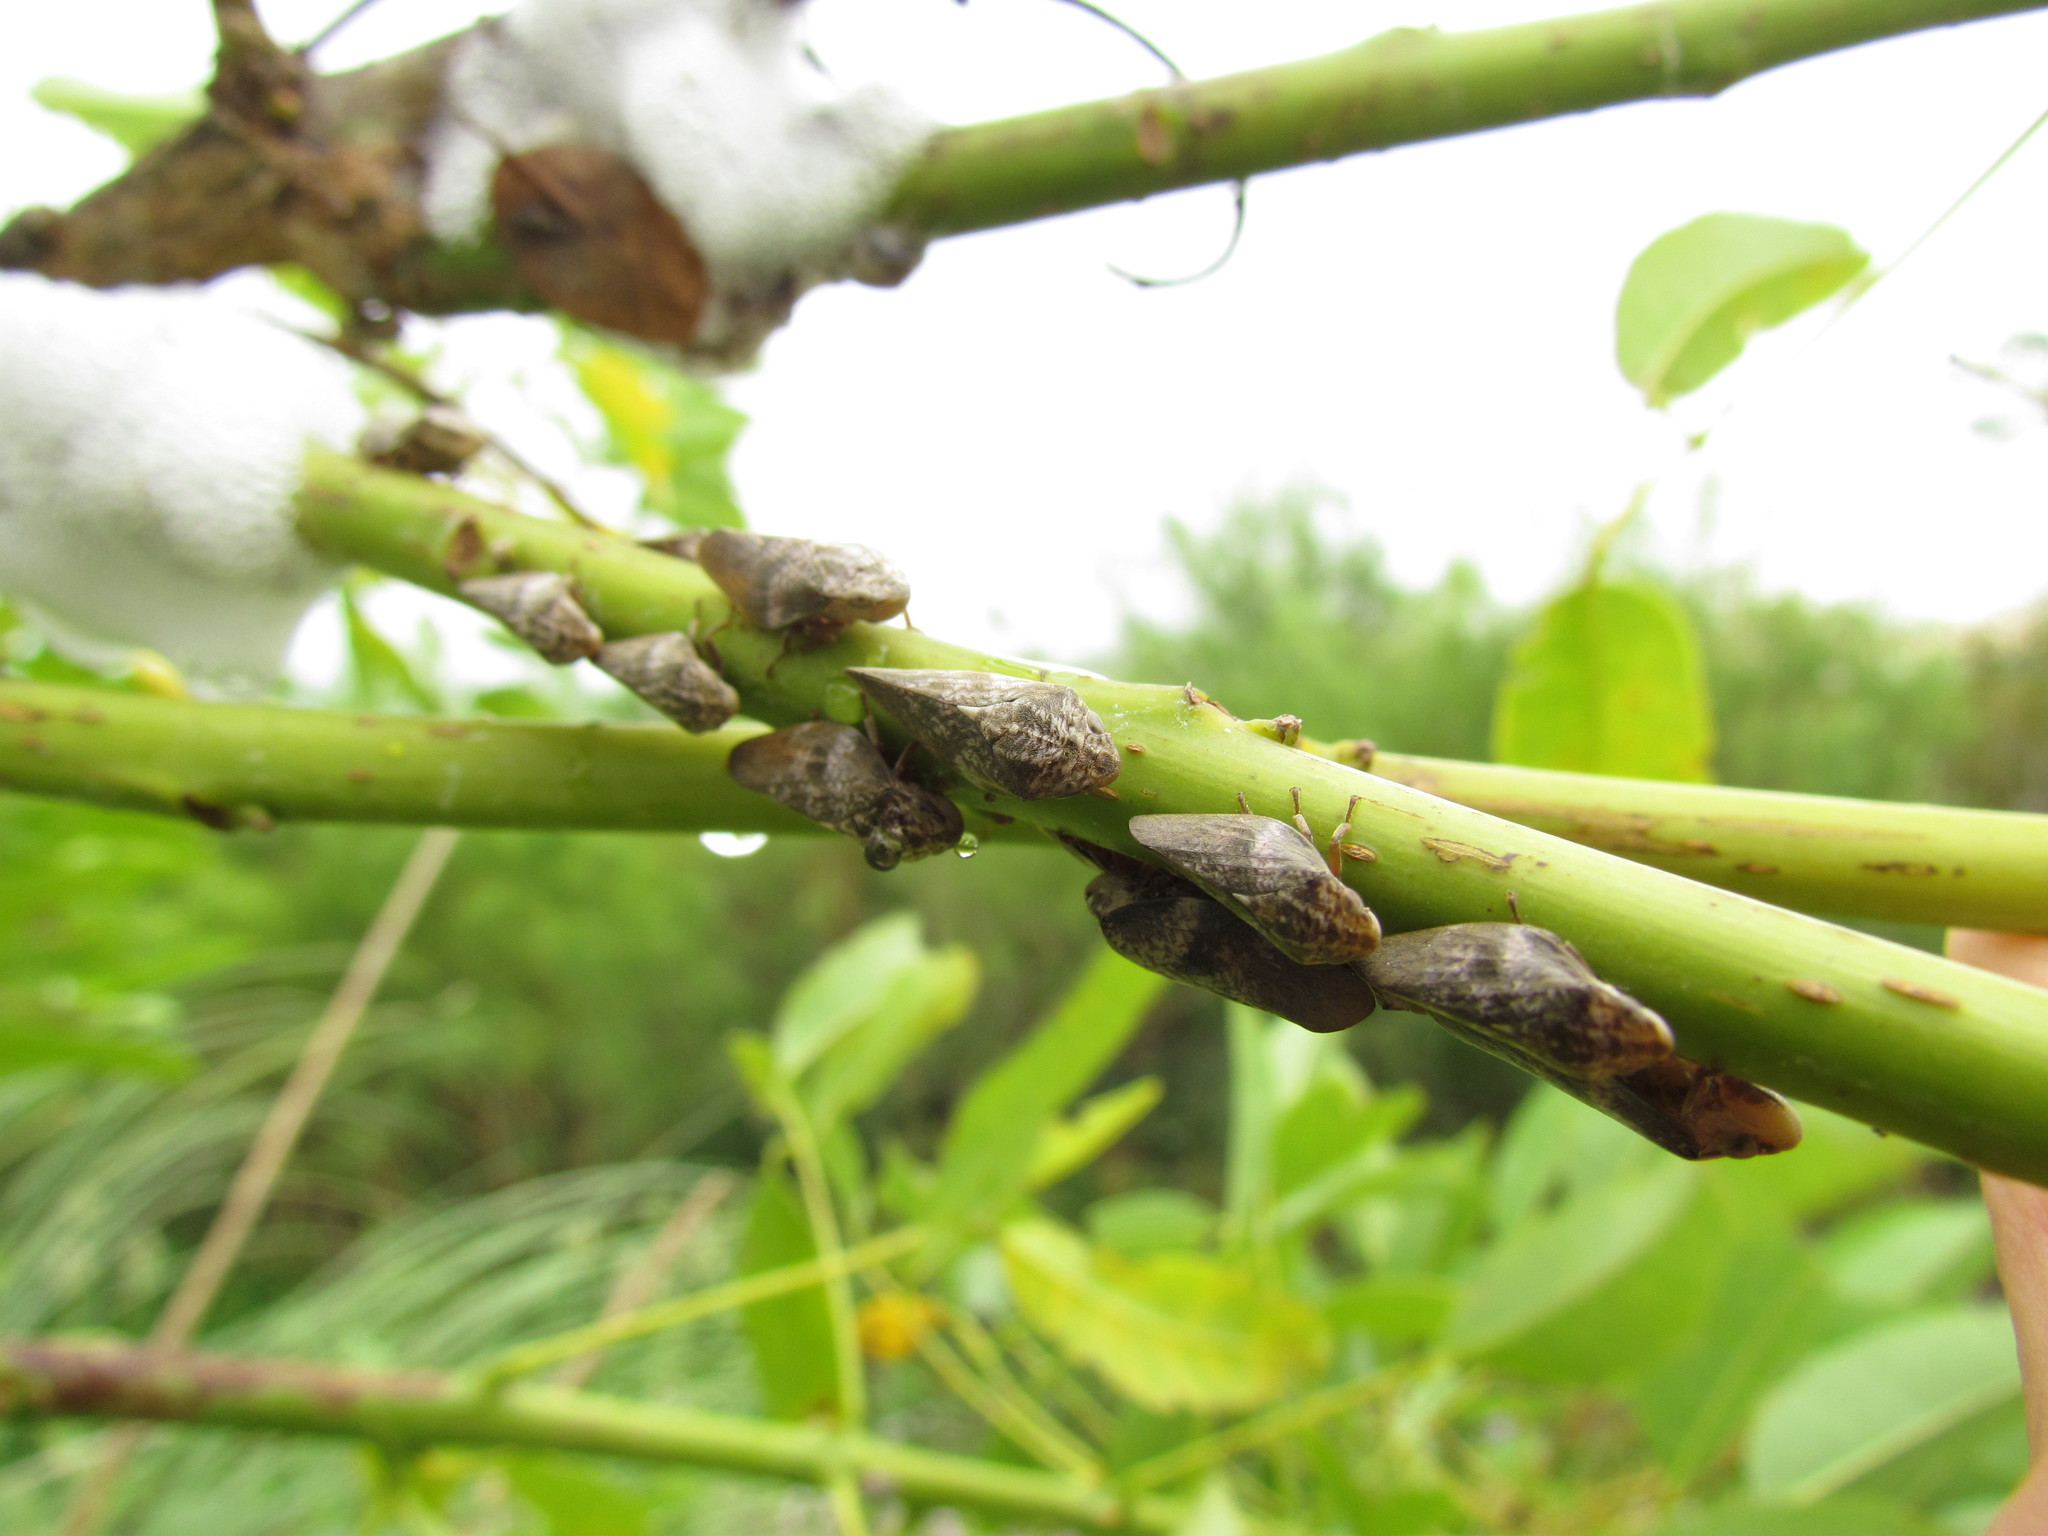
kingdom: Animalia
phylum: Arthropoda
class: Insecta
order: Hemiptera
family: Aphrophoridae
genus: Cephisus
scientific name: Cephisus siccifolius
